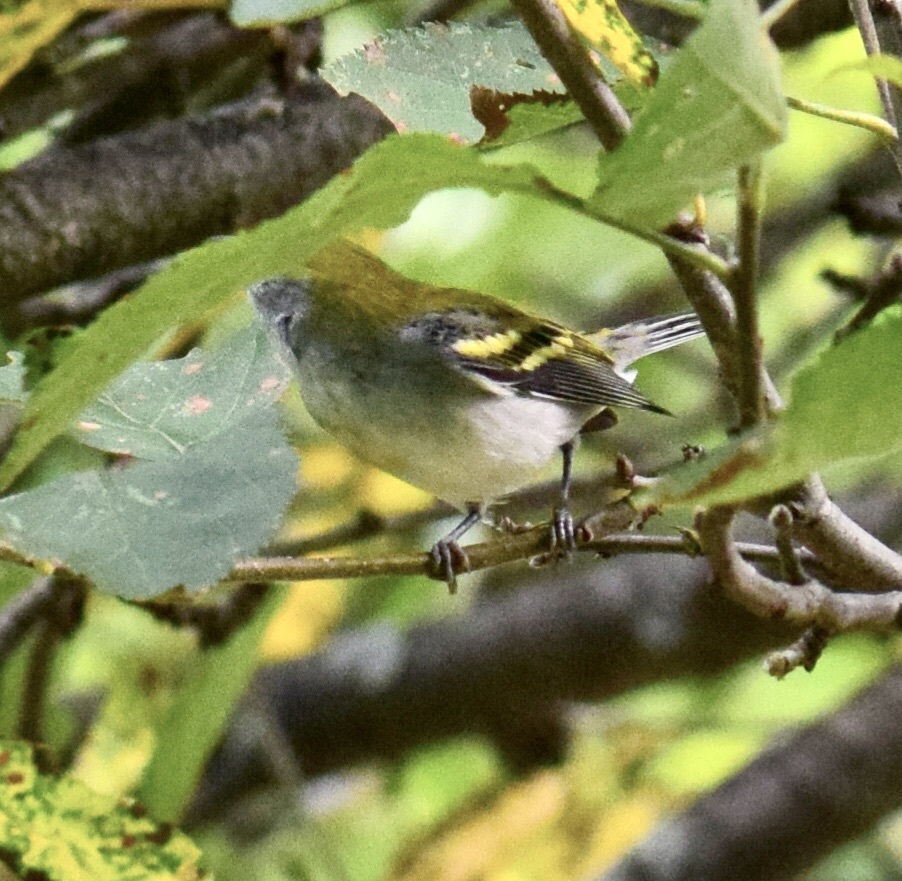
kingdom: Animalia
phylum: Chordata
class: Aves
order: Passeriformes
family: Parulidae
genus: Setophaga
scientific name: Setophaga pensylvanica
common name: Chestnut-sided warbler
